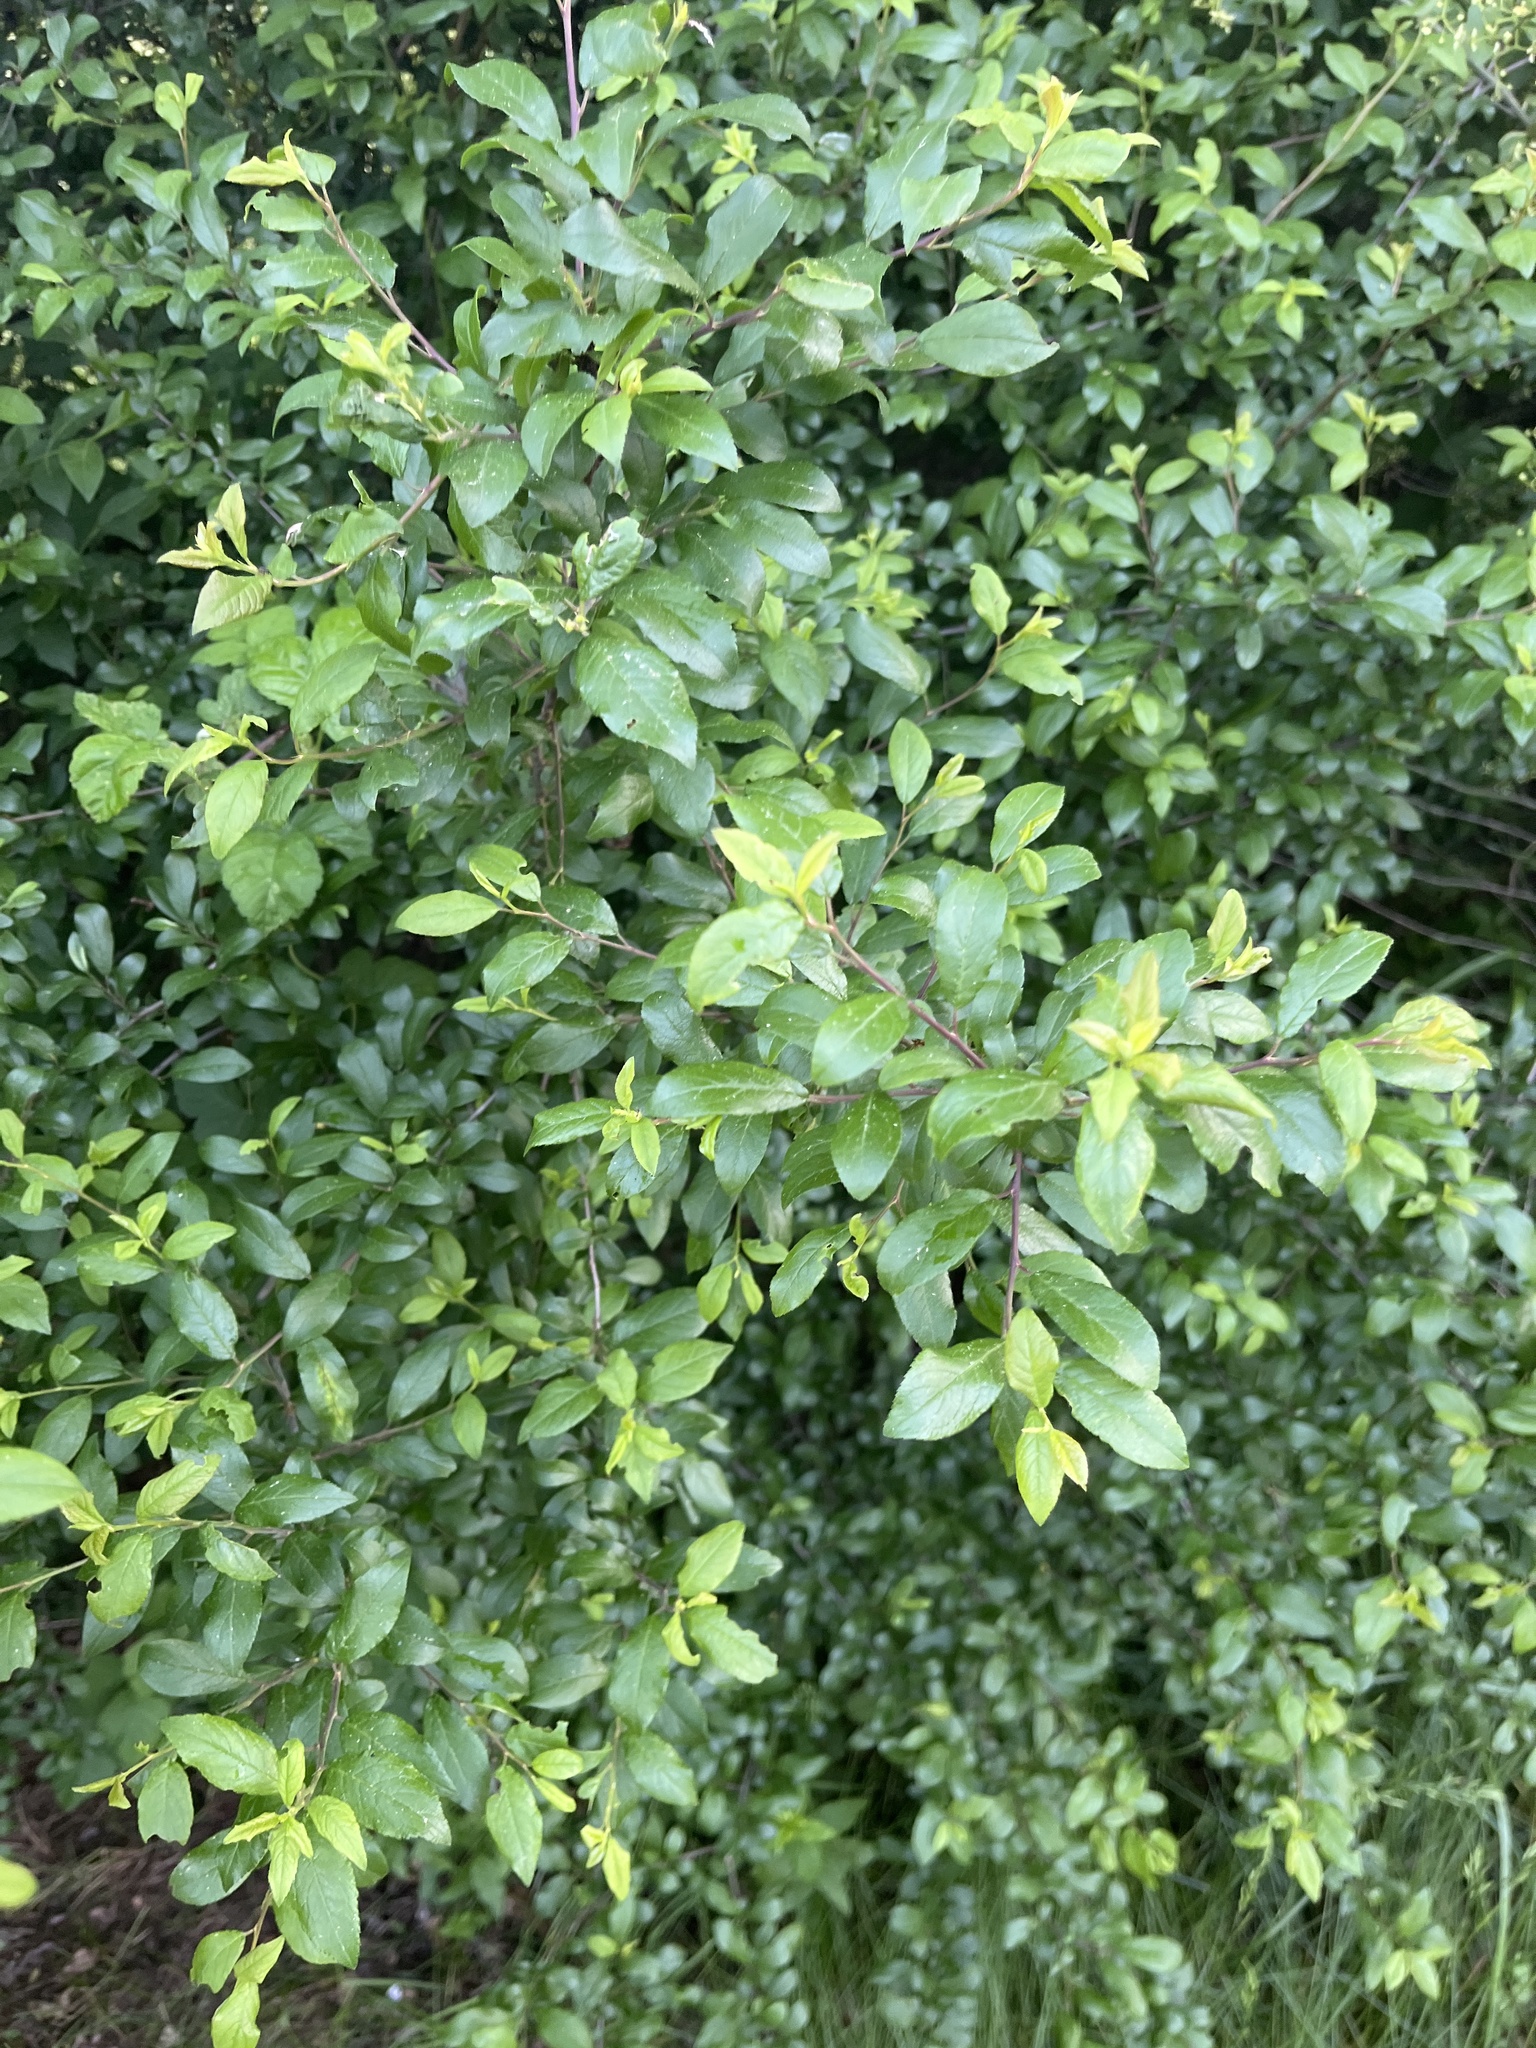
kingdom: Plantae
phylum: Tracheophyta
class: Magnoliopsida
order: Rosales
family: Rosaceae
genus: Prunus
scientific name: Prunus spinosa
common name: Blackthorn
